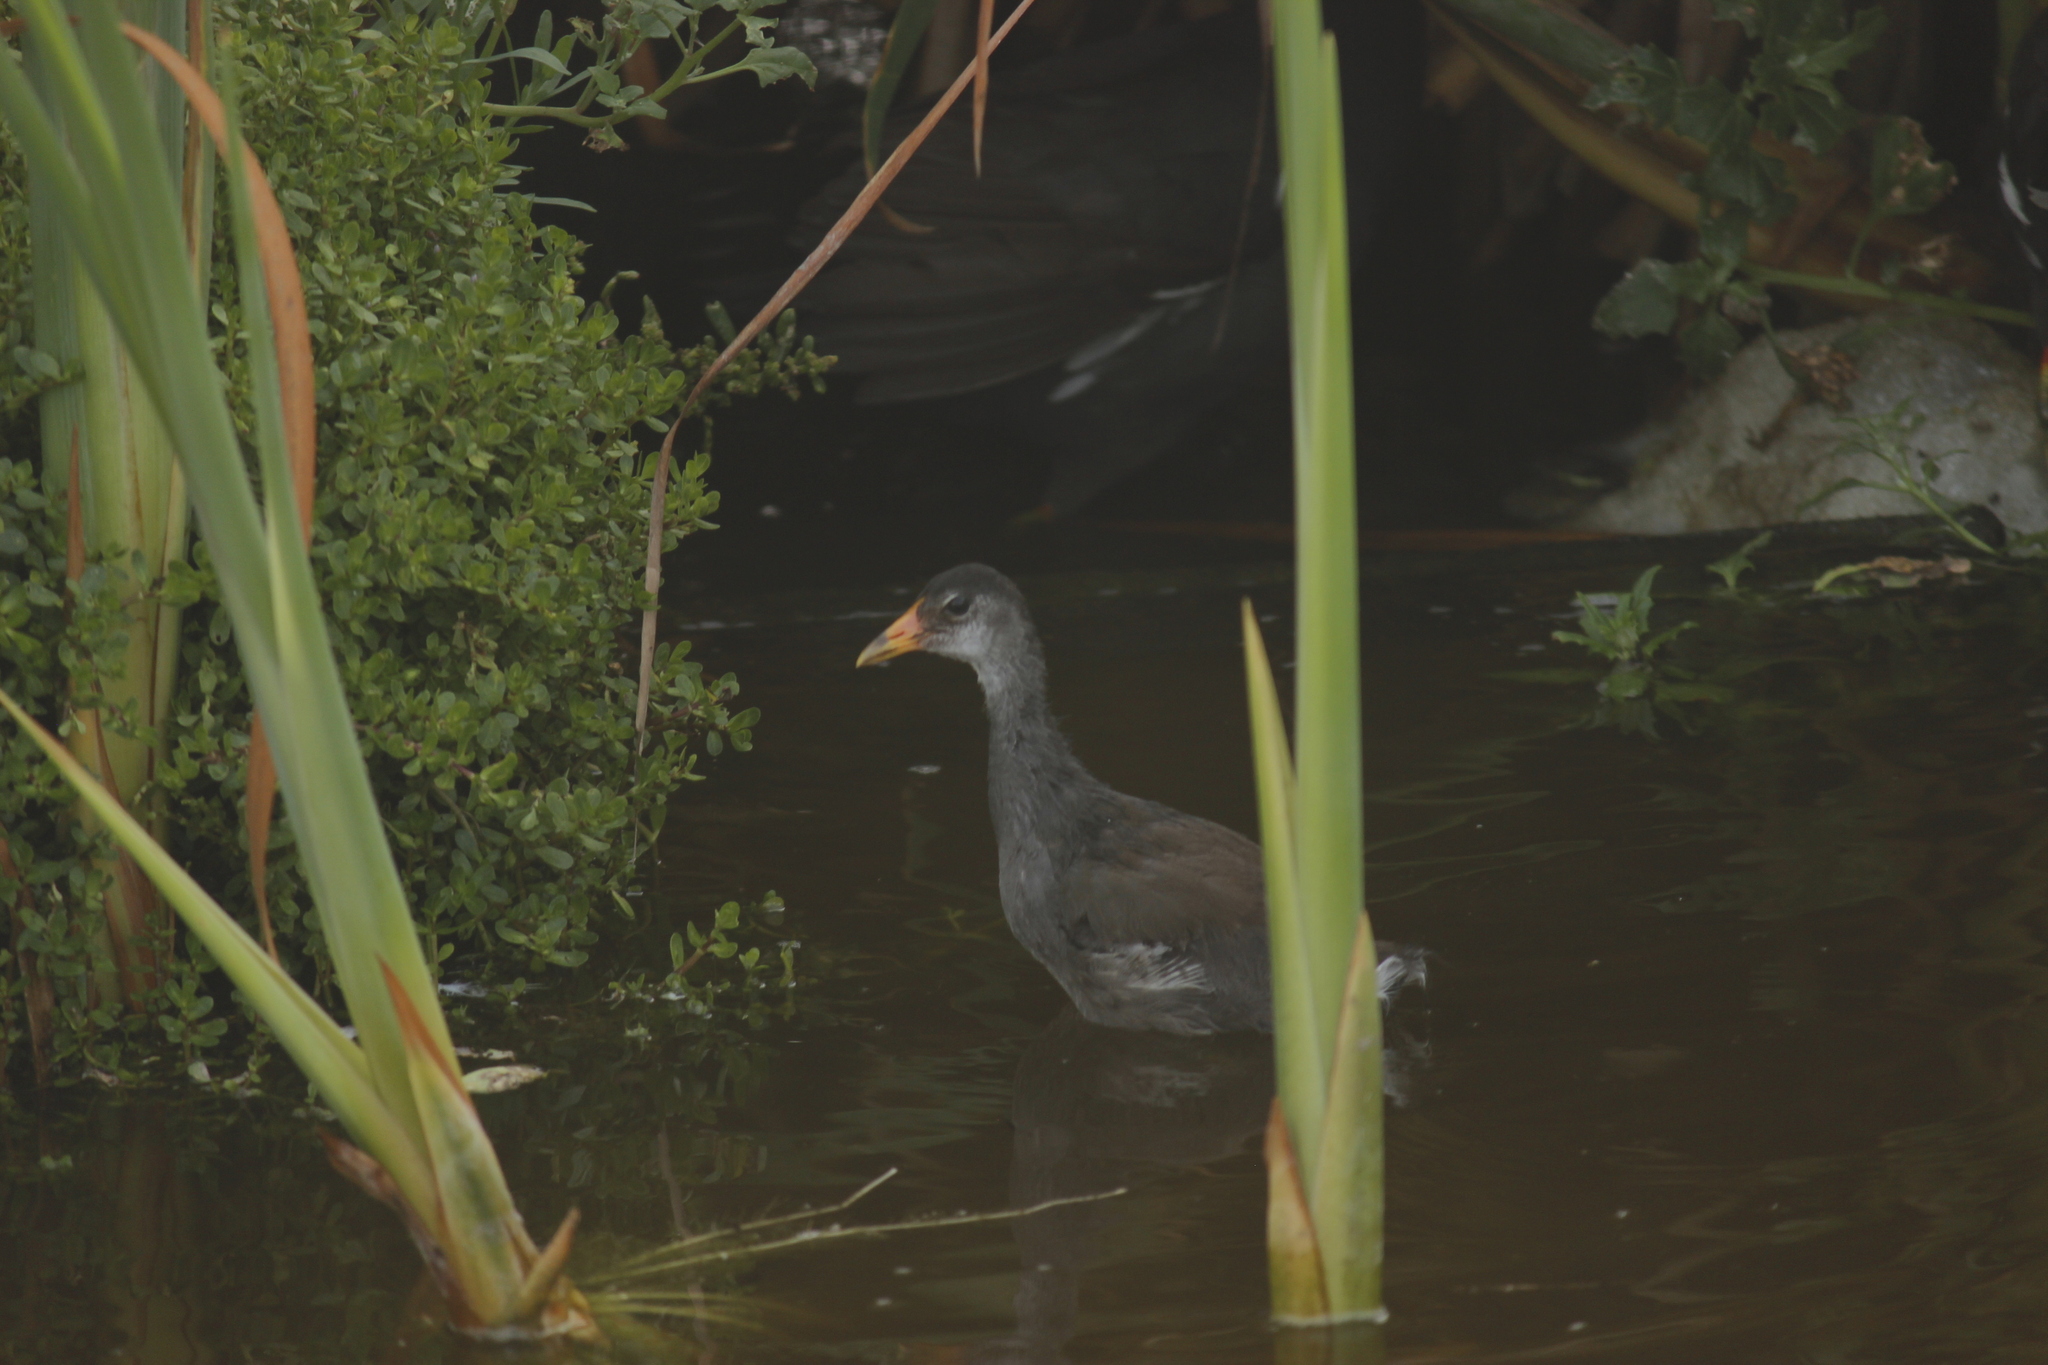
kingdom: Animalia
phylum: Chordata
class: Aves
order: Gruiformes
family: Rallidae
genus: Gallinula
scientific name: Gallinula chloropus
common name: Common moorhen
